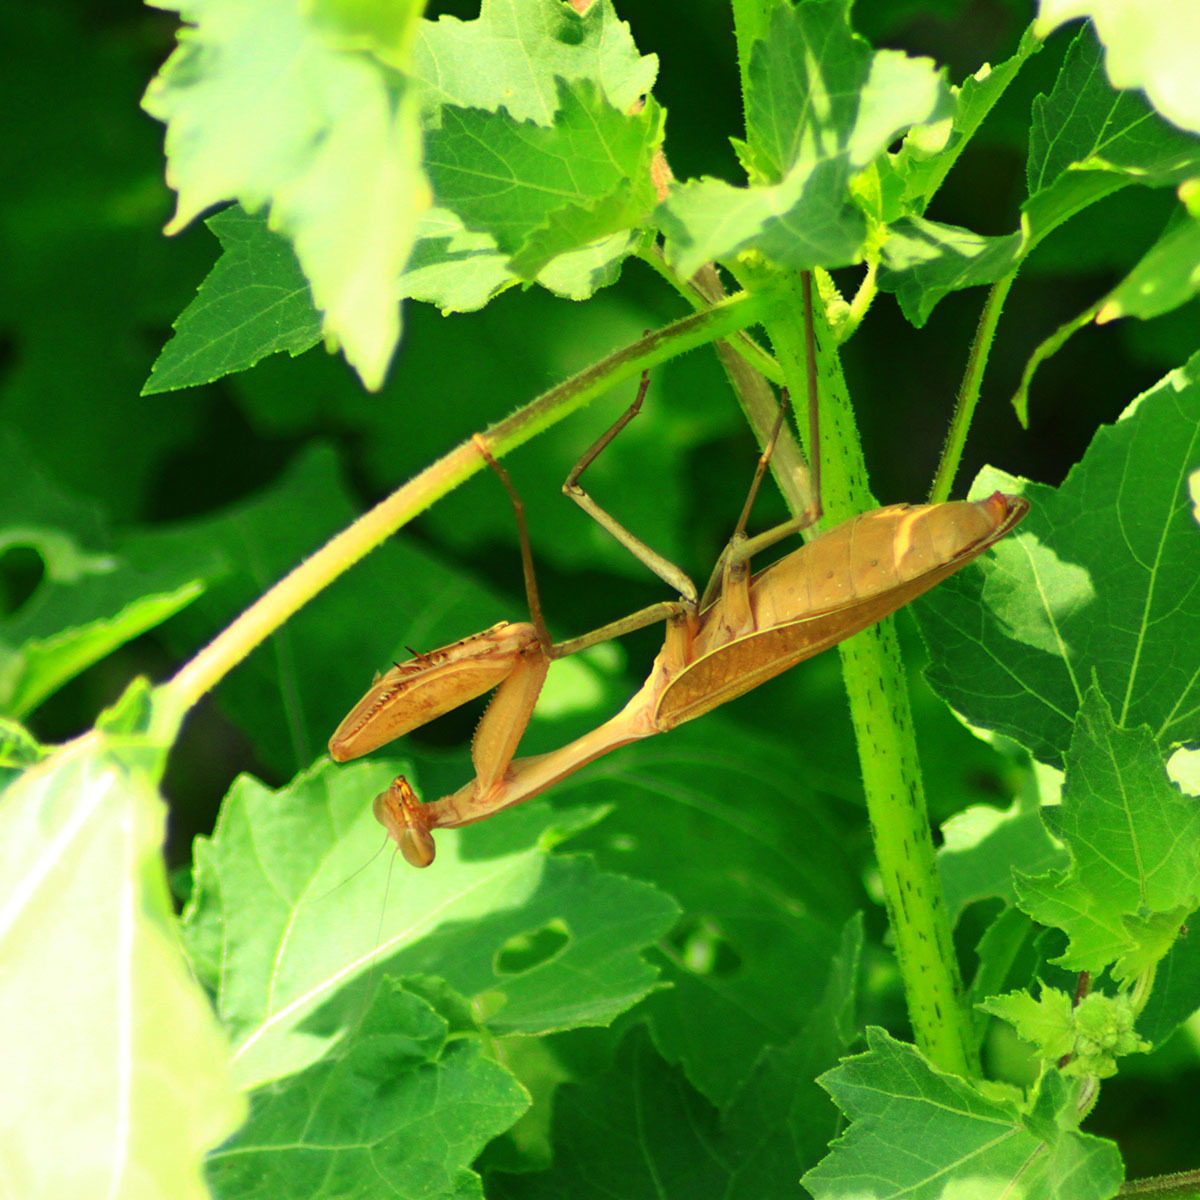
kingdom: Animalia
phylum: Arthropoda
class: Insecta
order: Mantodea
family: Mantidae
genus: Hierodula
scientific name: Hierodula membranacea
